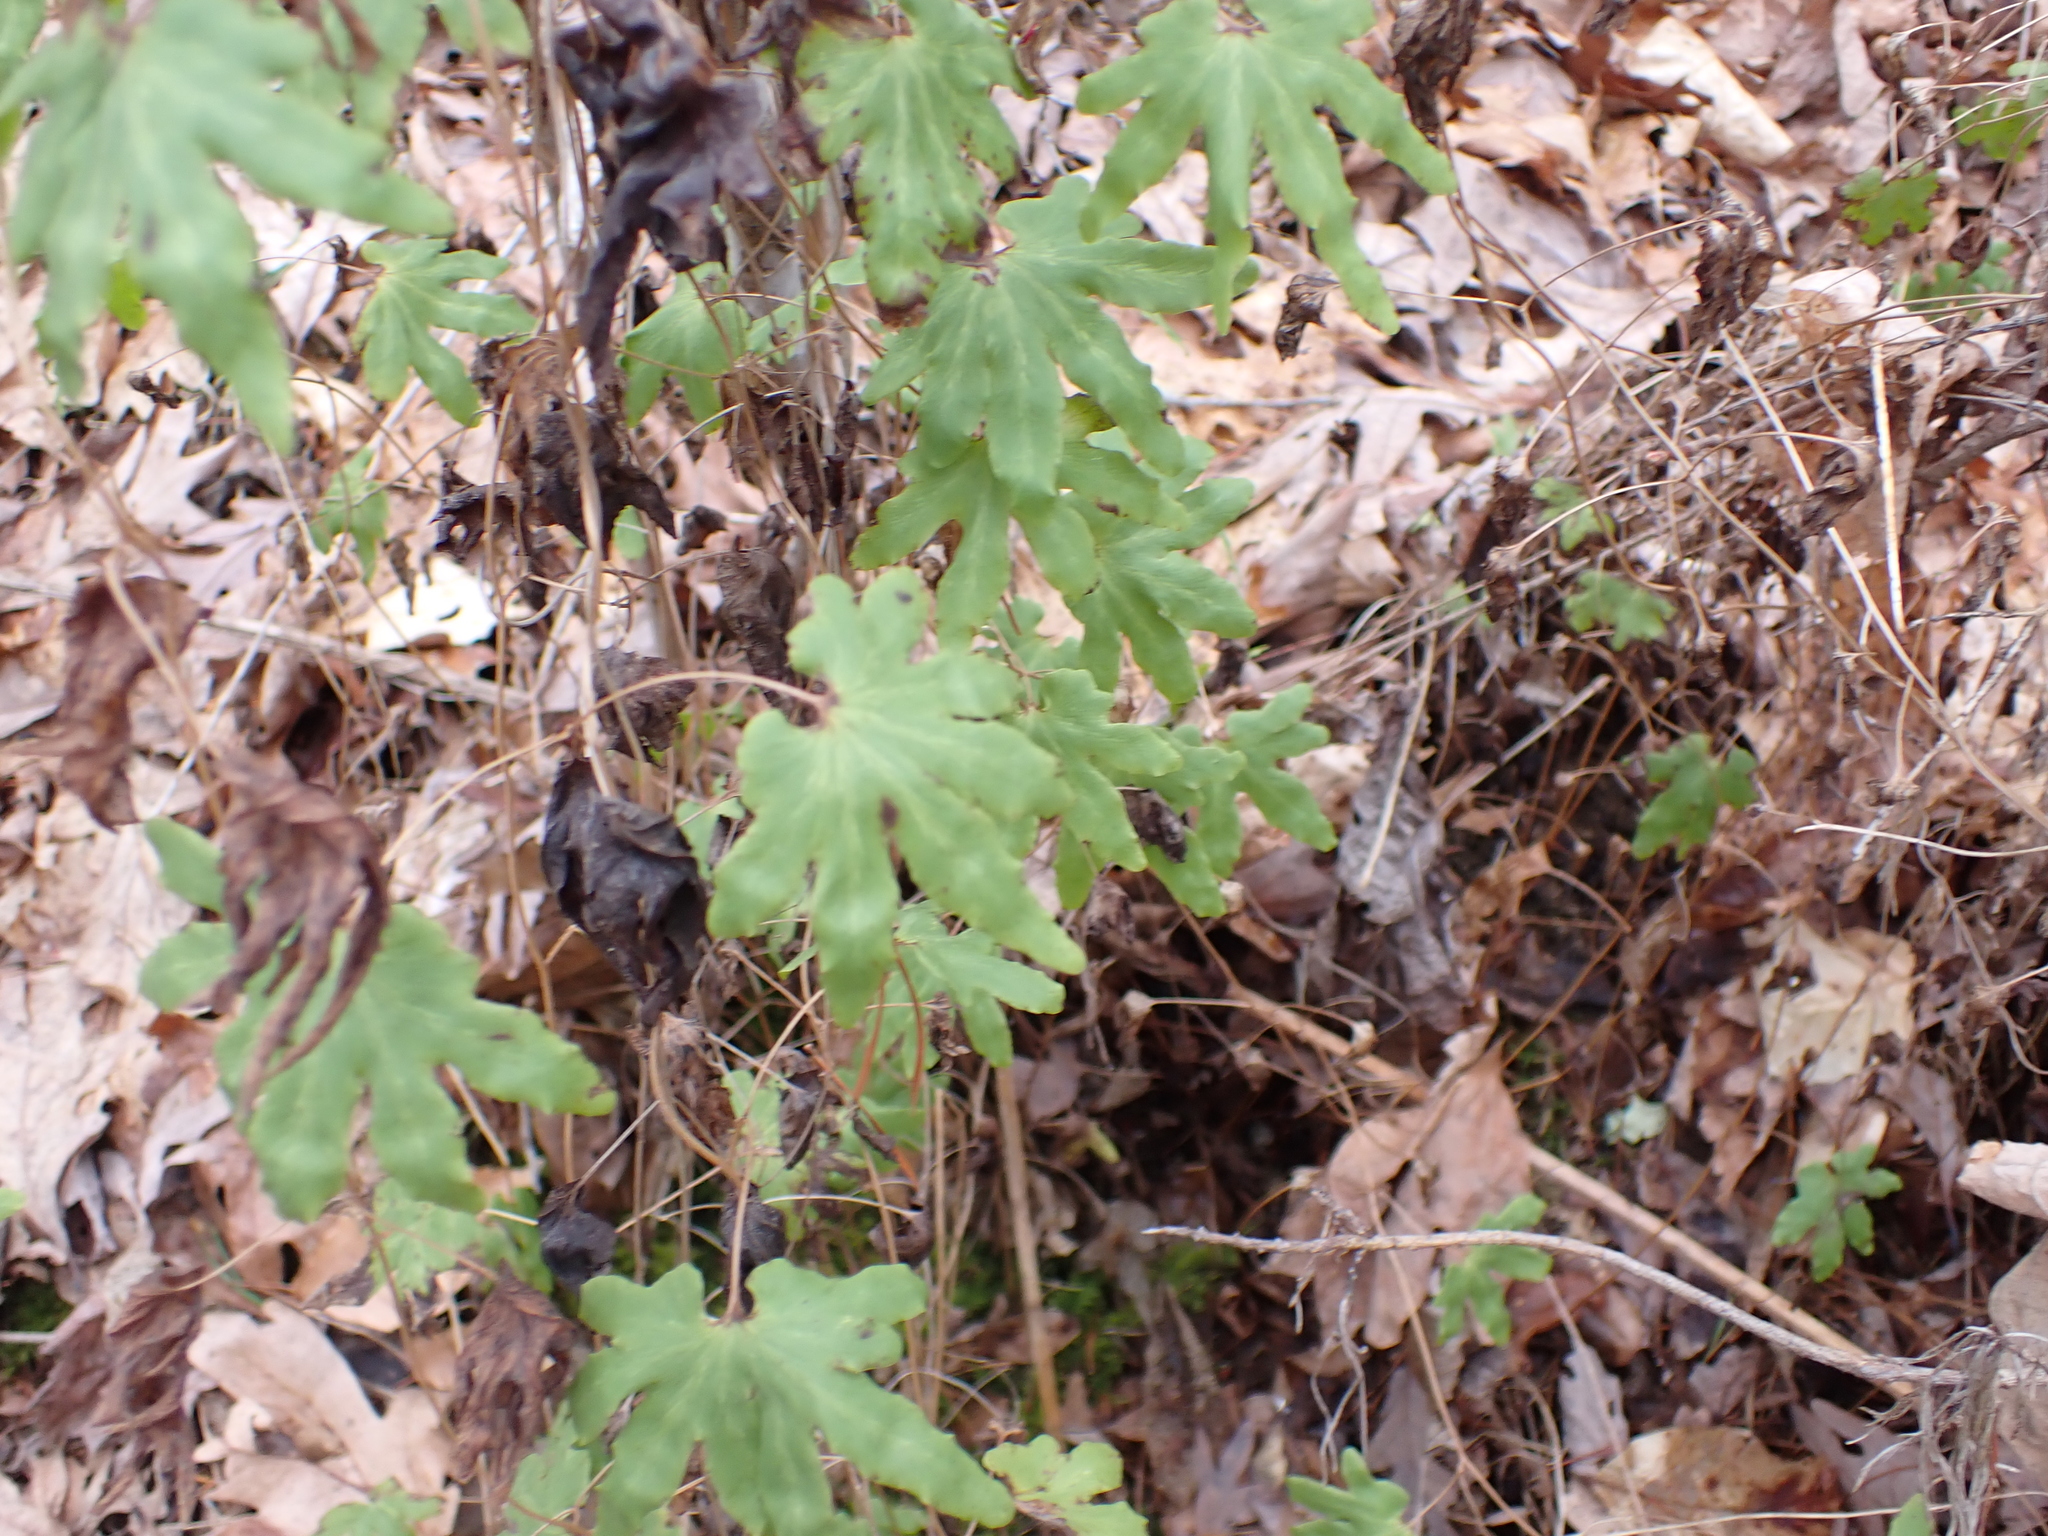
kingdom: Plantae
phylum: Tracheophyta
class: Polypodiopsida
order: Schizaeales
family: Lygodiaceae
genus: Lygodium
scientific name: Lygodium palmatum
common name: American climbing fern
